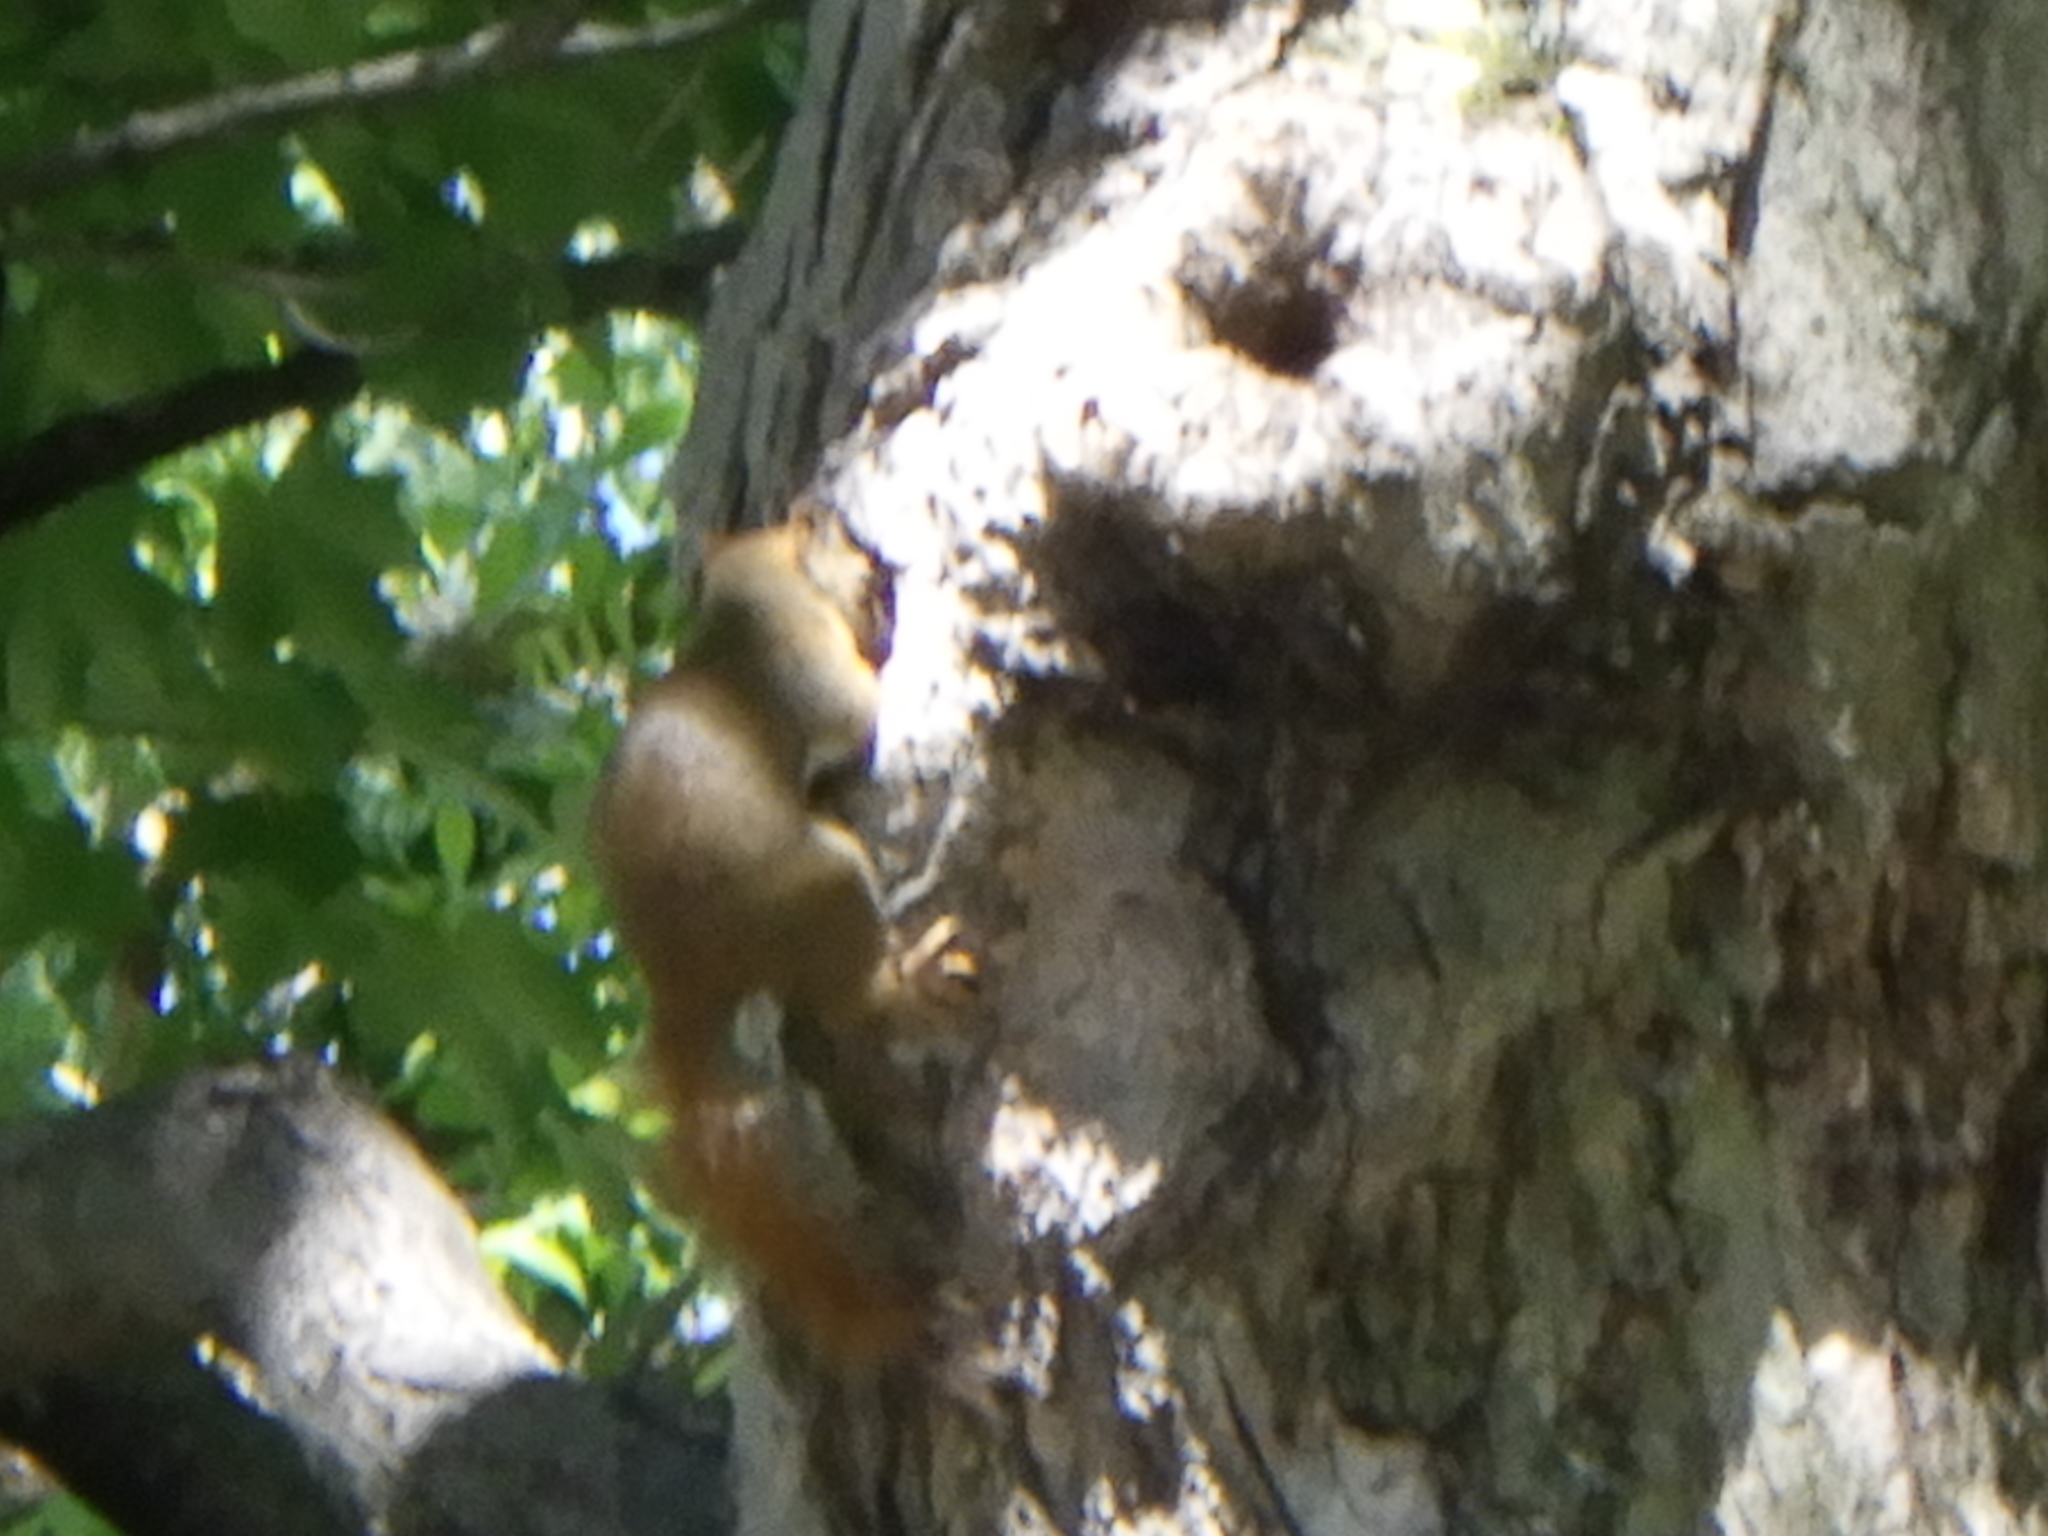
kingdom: Animalia
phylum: Chordata
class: Mammalia
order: Rodentia
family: Sciuridae
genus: Tamiasciurus
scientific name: Tamiasciurus hudsonicus
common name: Red squirrel
